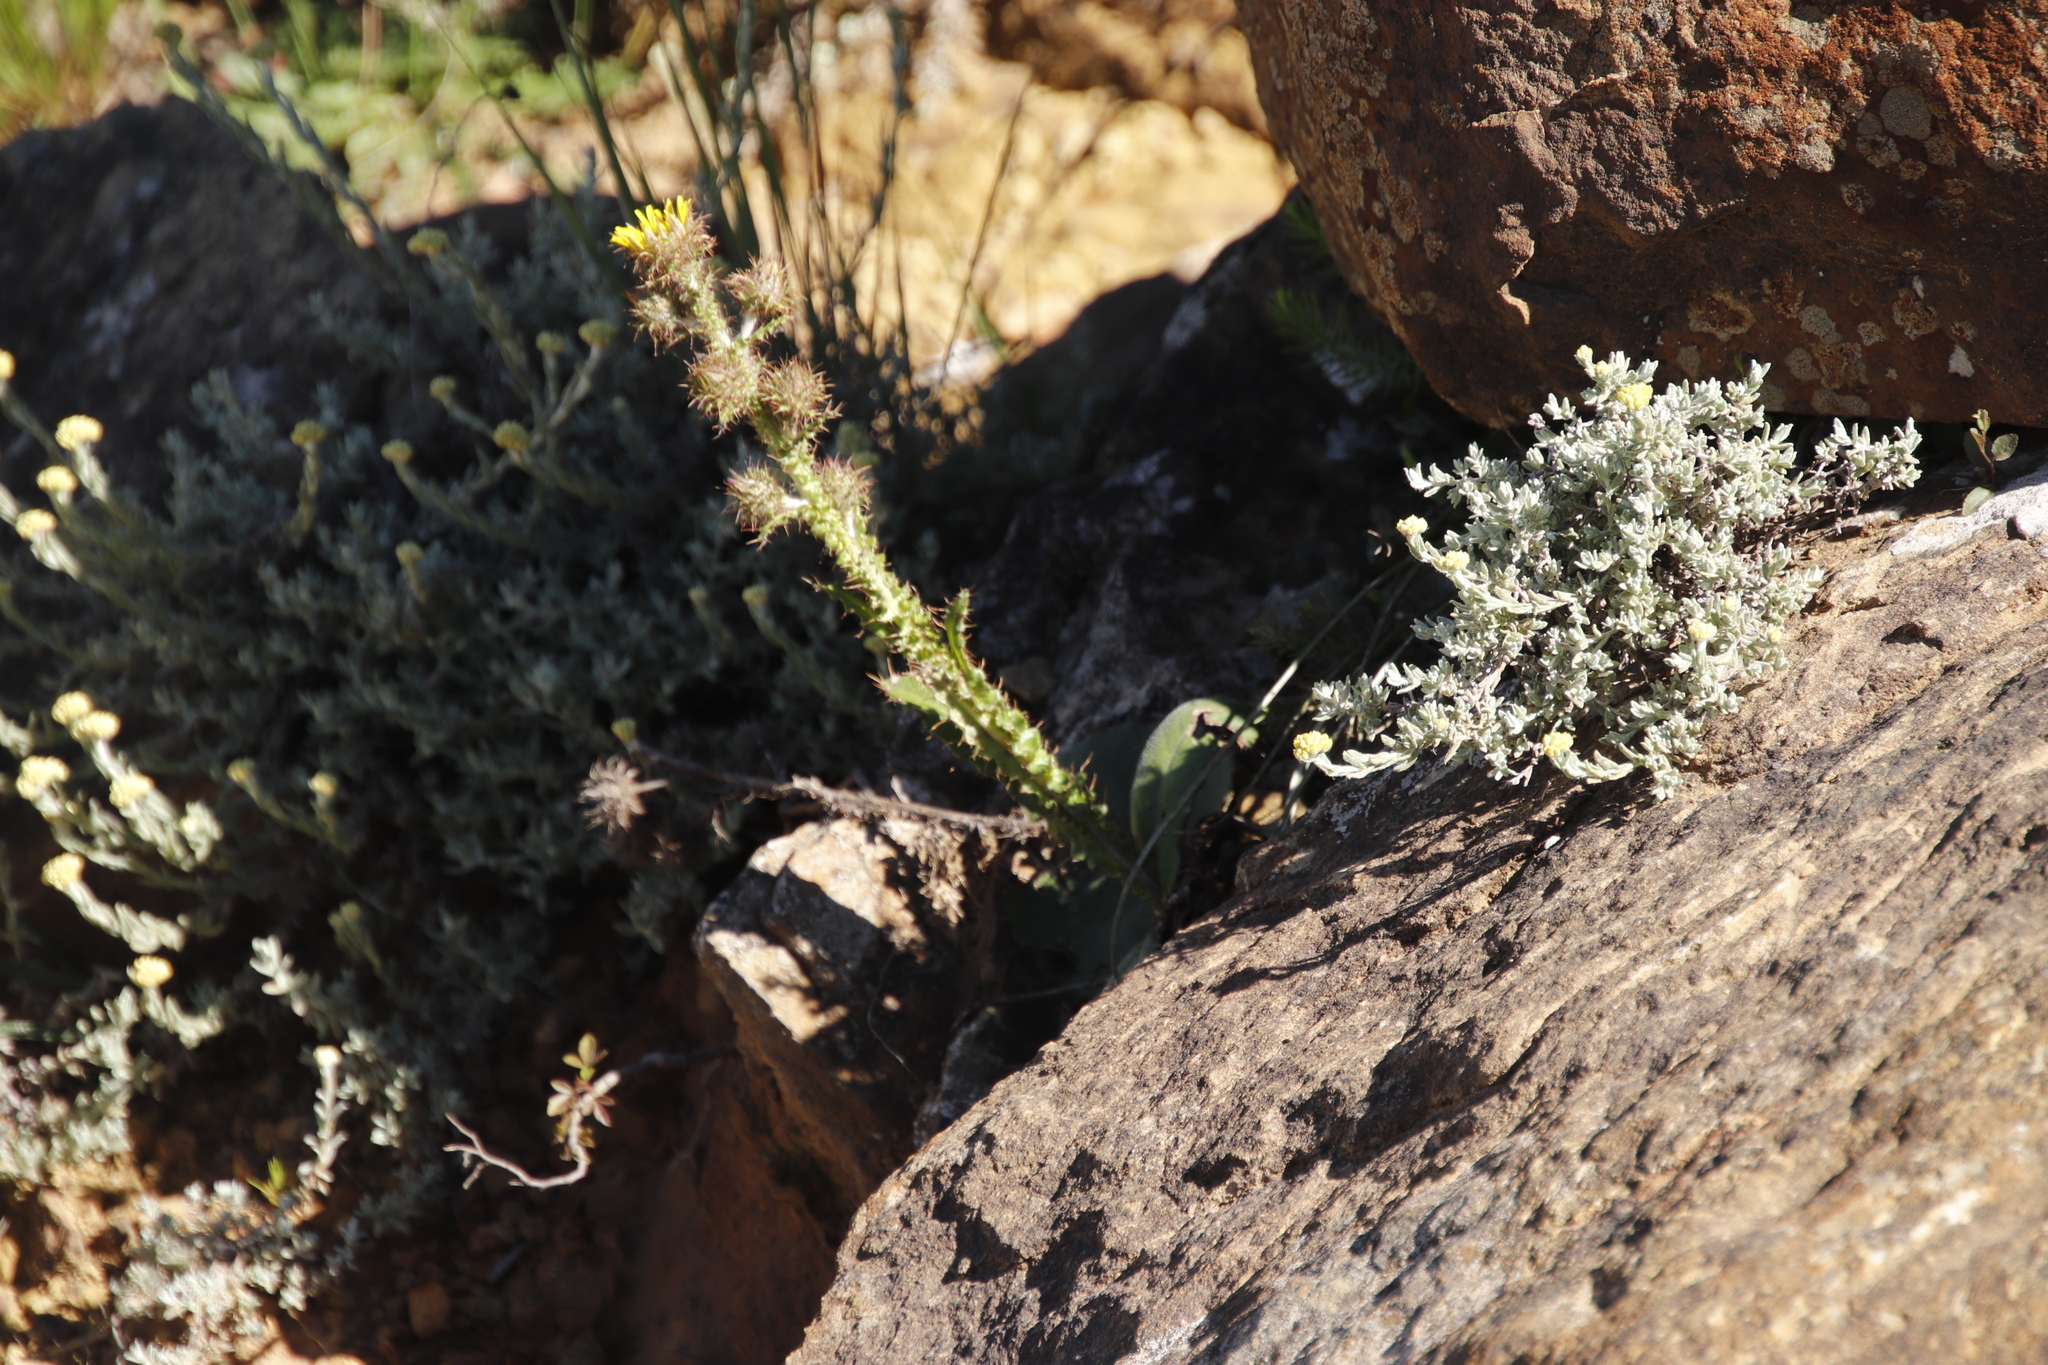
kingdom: Plantae
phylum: Tracheophyta
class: Magnoliopsida
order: Asterales
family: Asteraceae
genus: Berkheya
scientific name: Berkheya rhapontica
